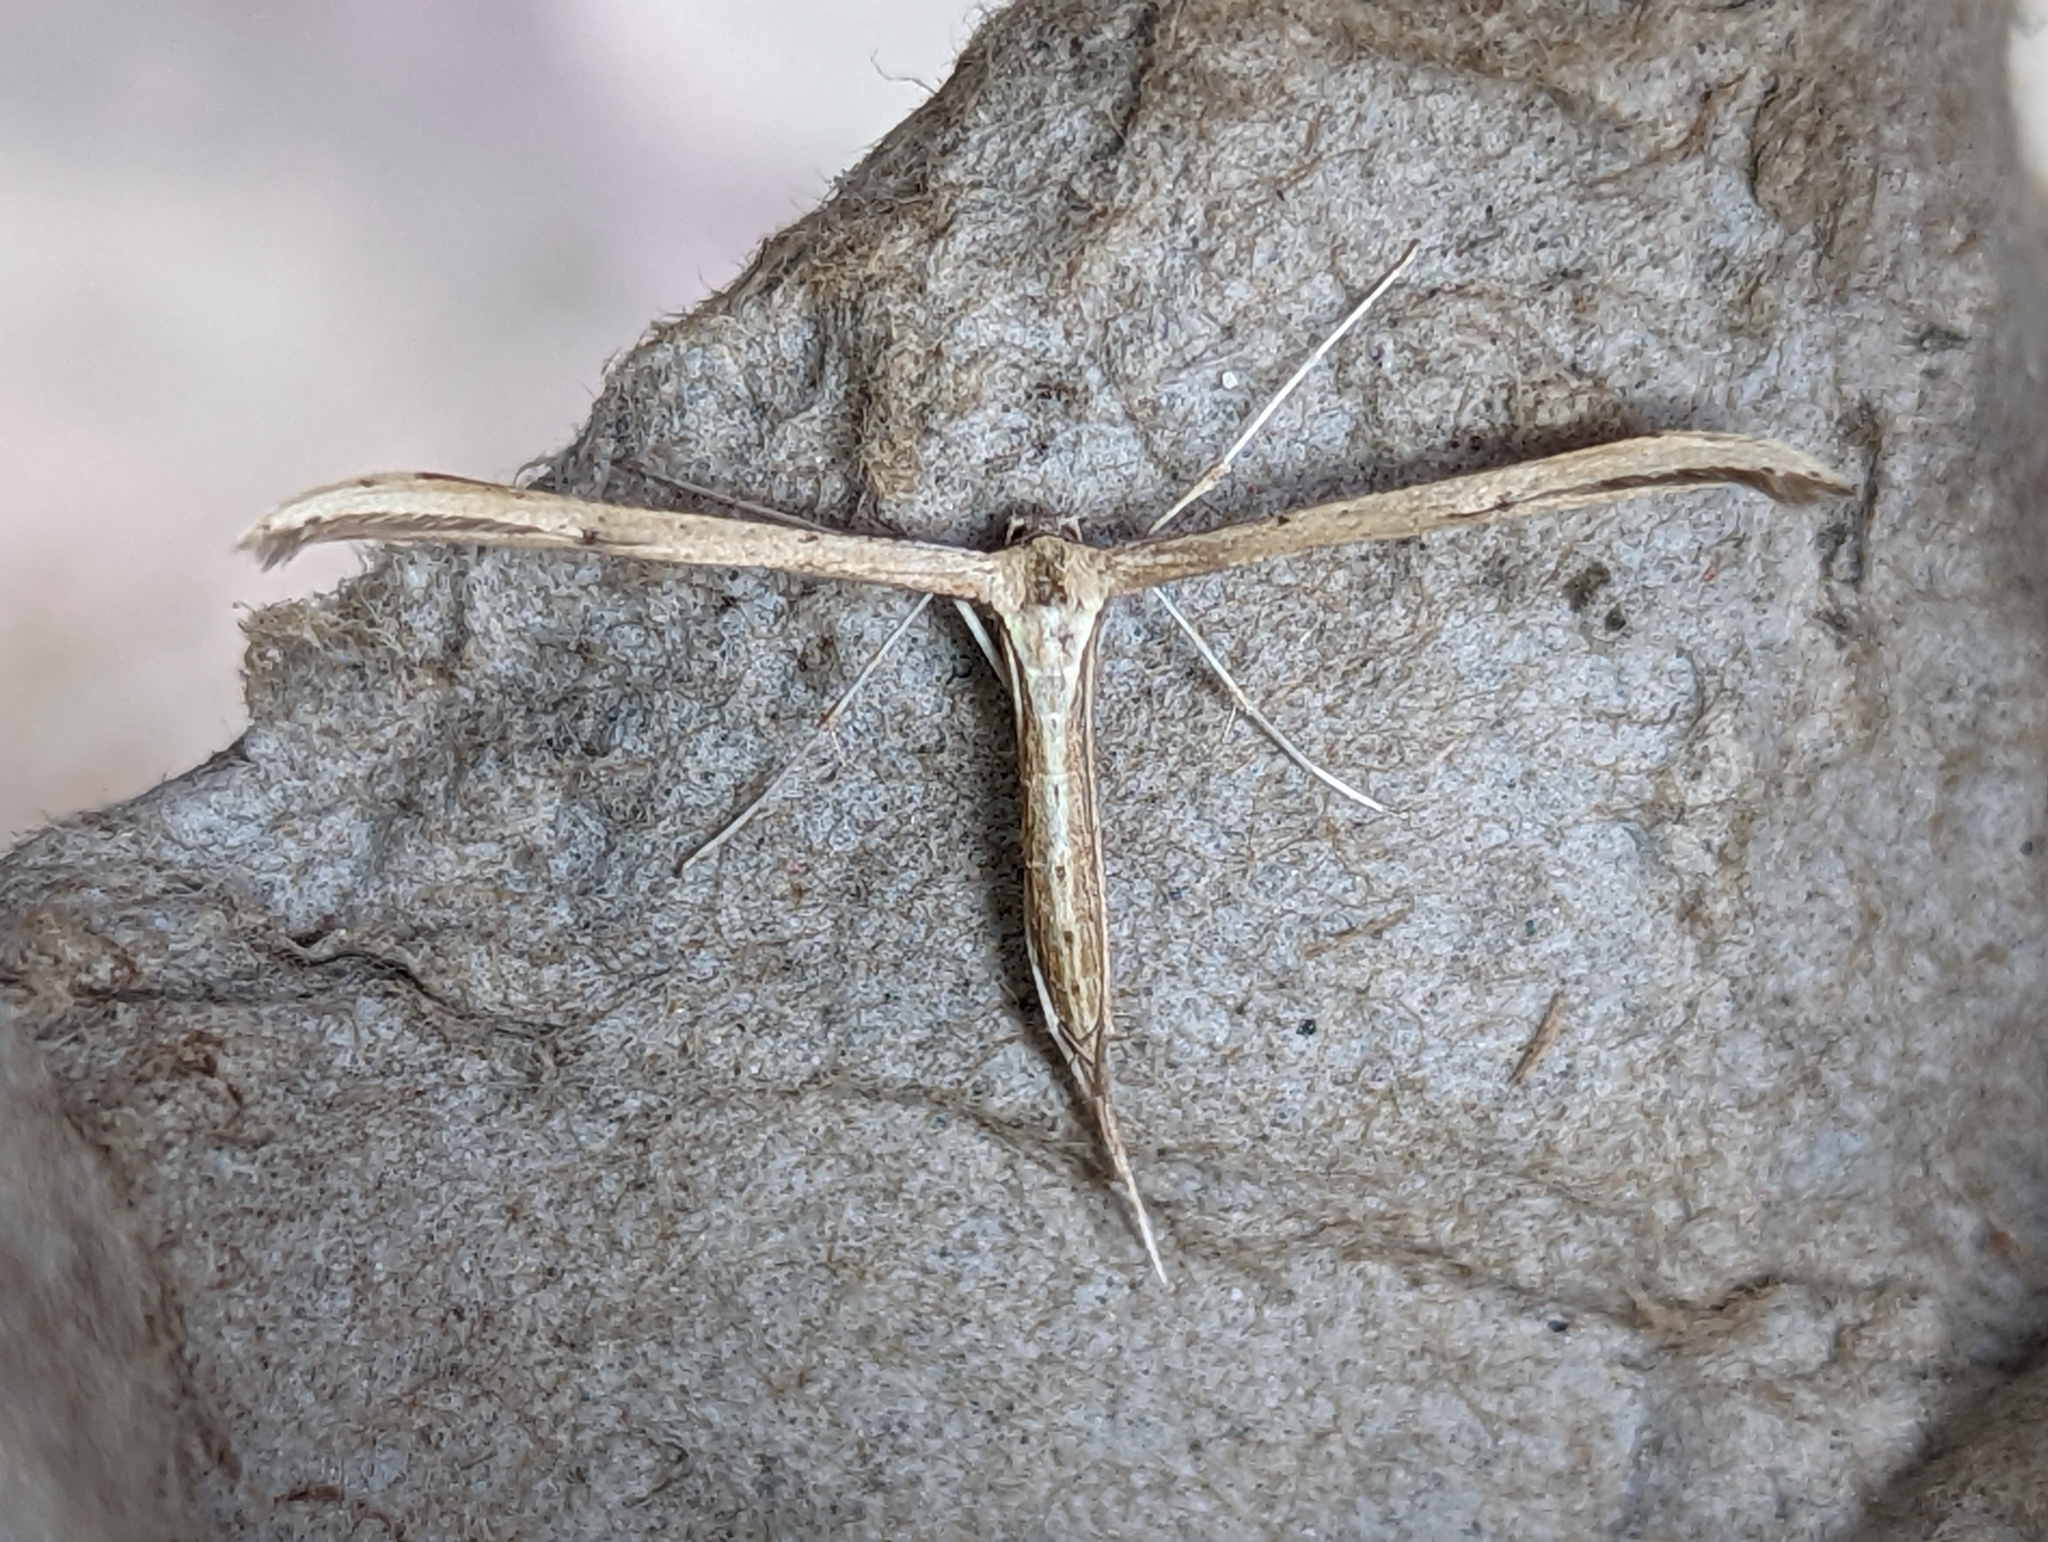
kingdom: Animalia
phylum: Arthropoda
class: Insecta
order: Lepidoptera
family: Pterophoridae
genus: Emmelina
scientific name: Emmelina monodactyla
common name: Common plume
